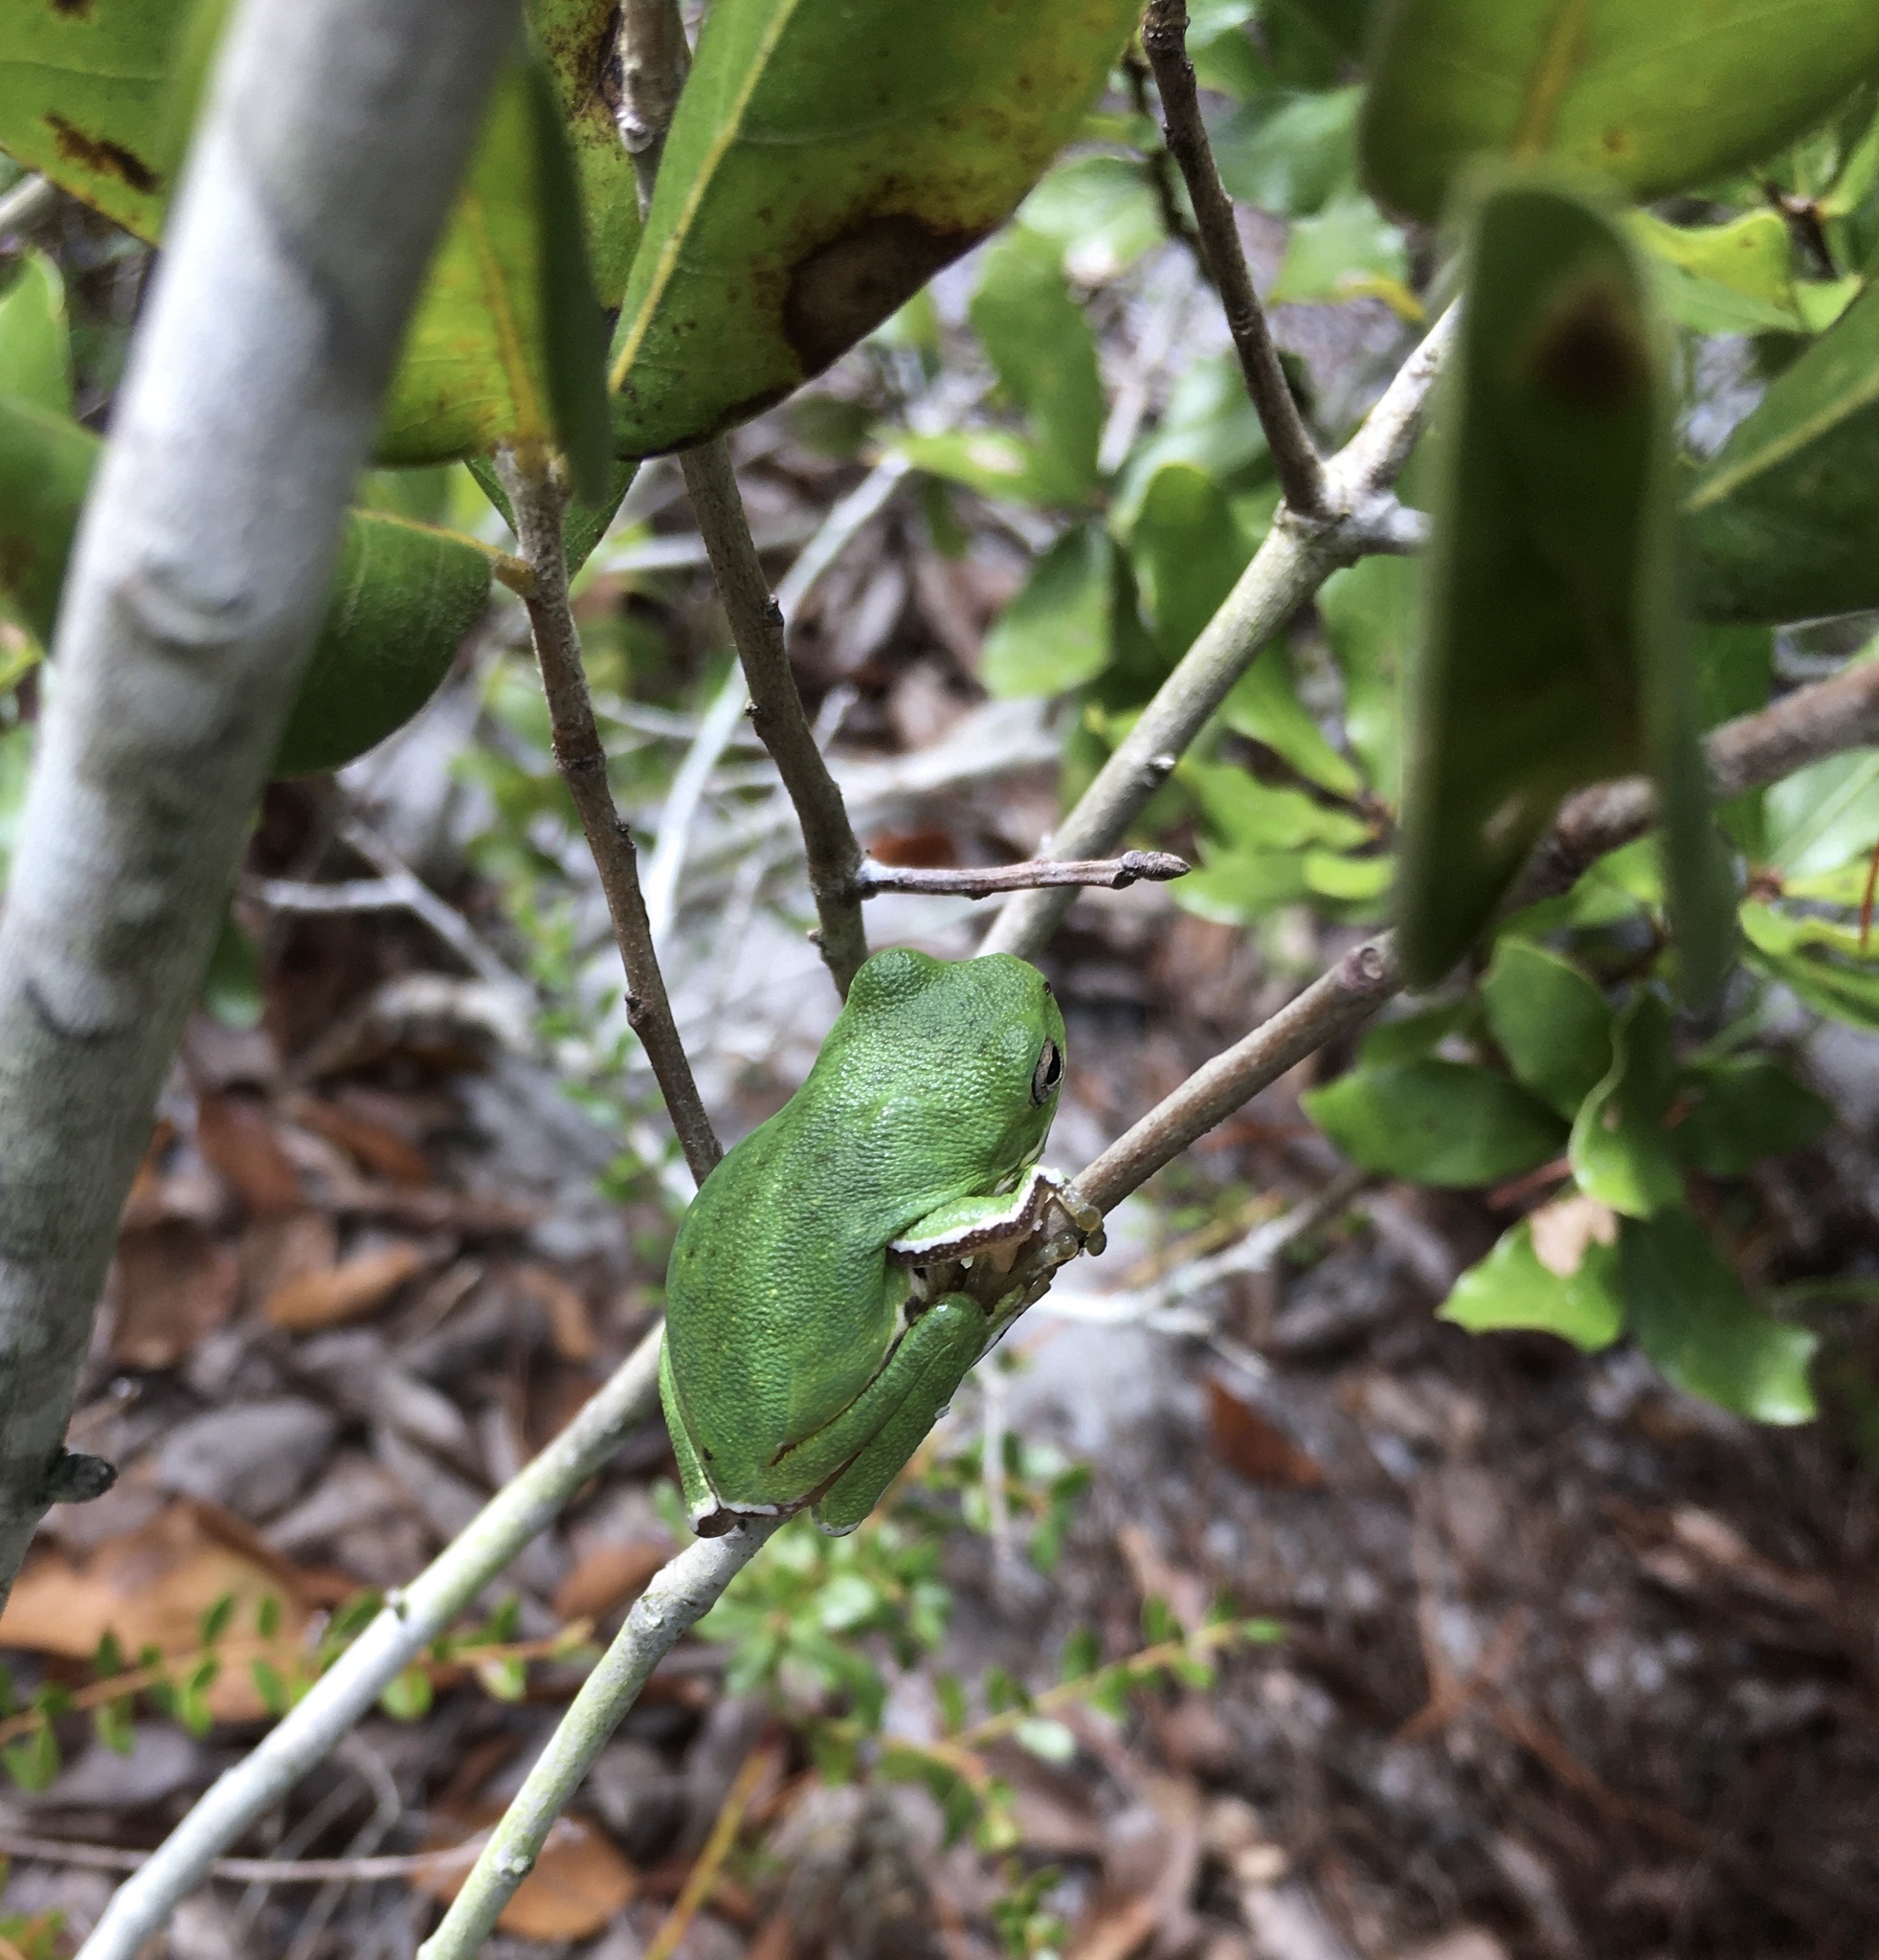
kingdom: Animalia
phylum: Chordata
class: Amphibia
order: Anura
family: Hylidae
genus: Dryophytes
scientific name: Dryophytes gratiosus
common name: Barking treefrog
